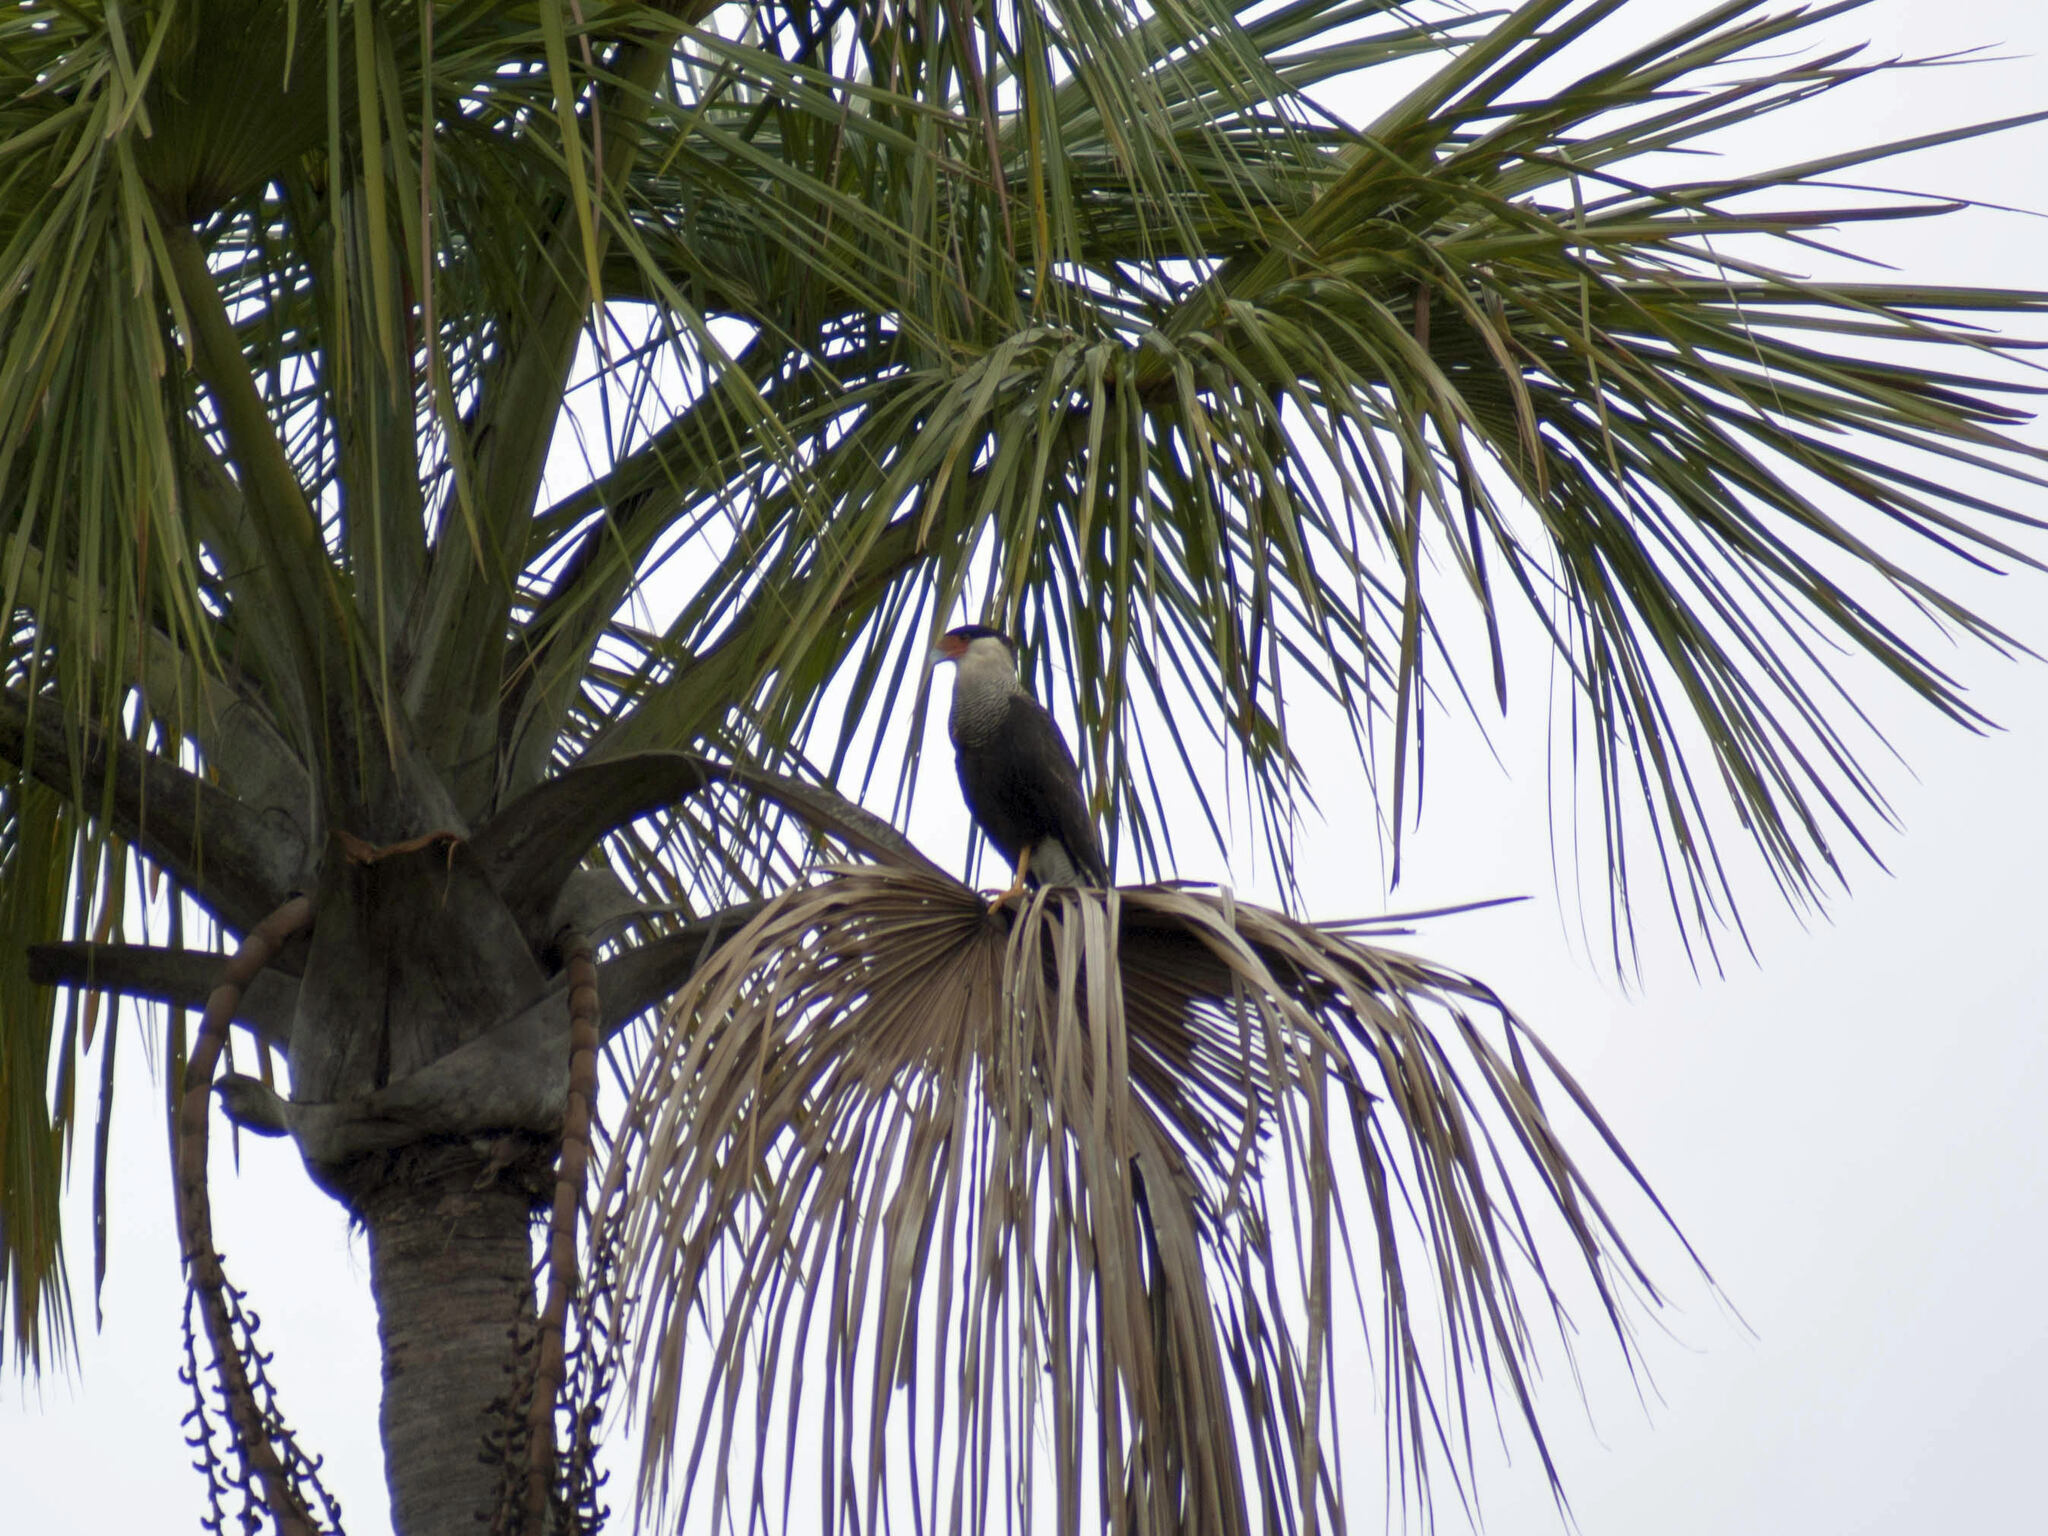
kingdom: Animalia
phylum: Chordata
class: Aves
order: Falconiformes
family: Falconidae
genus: Caracara
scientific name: Caracara plancus
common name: Southern caracara
